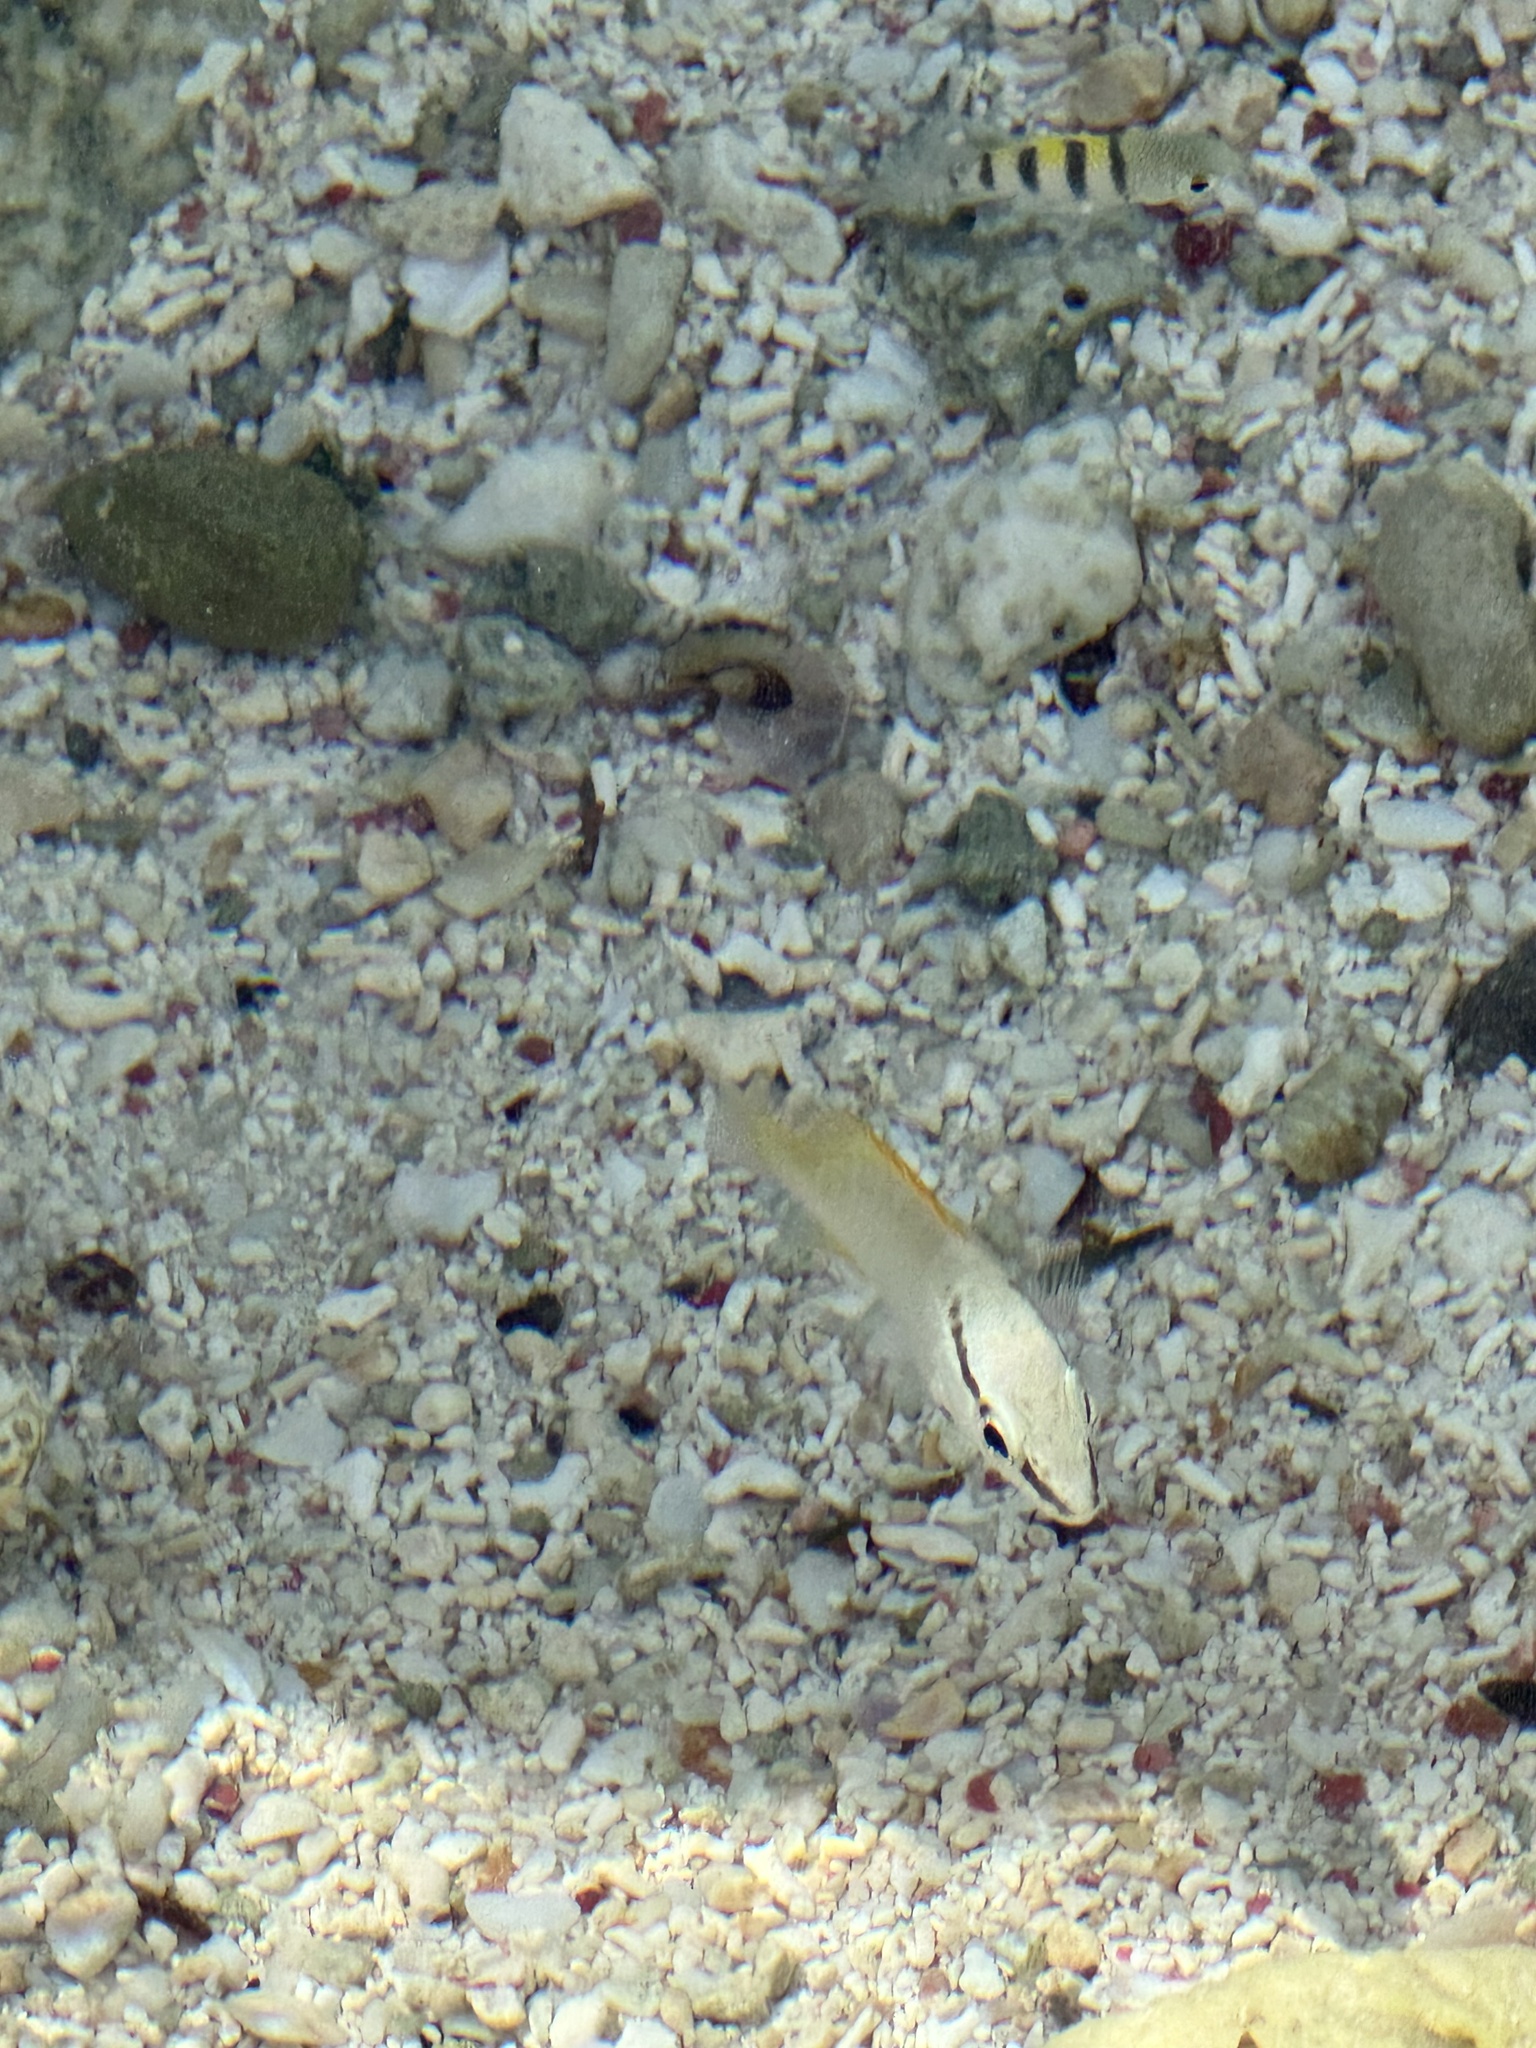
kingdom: Animalia
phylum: Chordata
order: Perciformes
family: Lutjanidae
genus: Lutjanus
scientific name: Lutjanus apodus
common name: Schoolmaster
